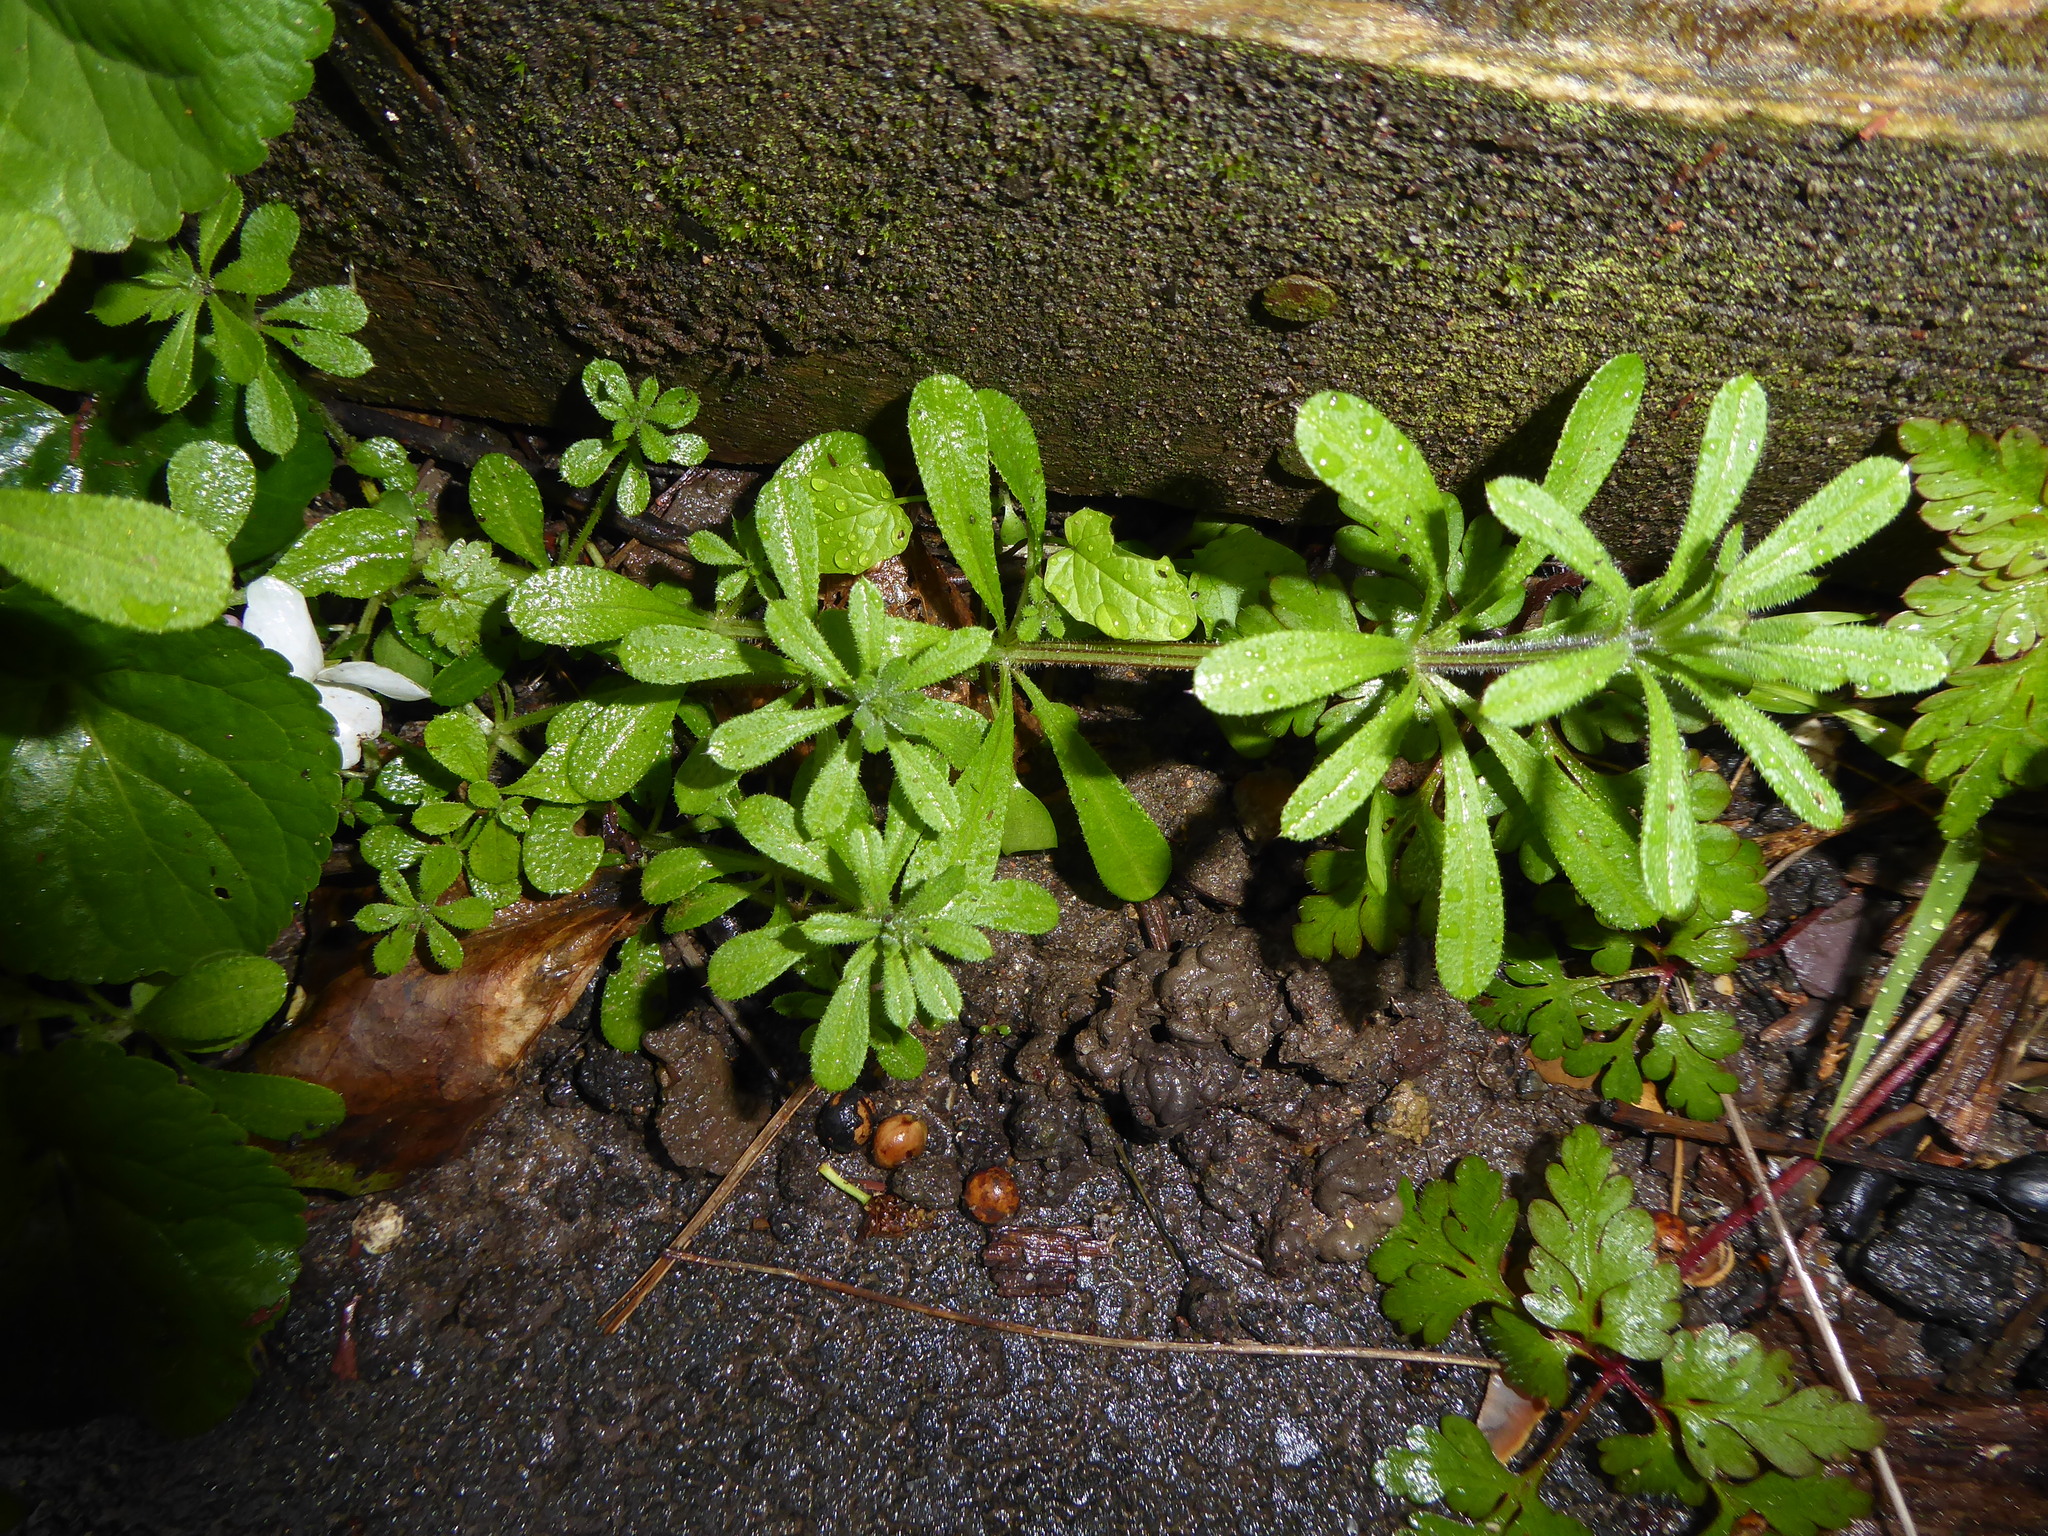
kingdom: Plantae
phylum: Tracheophyta
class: Magnoliopsida
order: Gentianales
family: Rubiaceae
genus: Galium
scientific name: Galium aparine
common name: Cleavers
